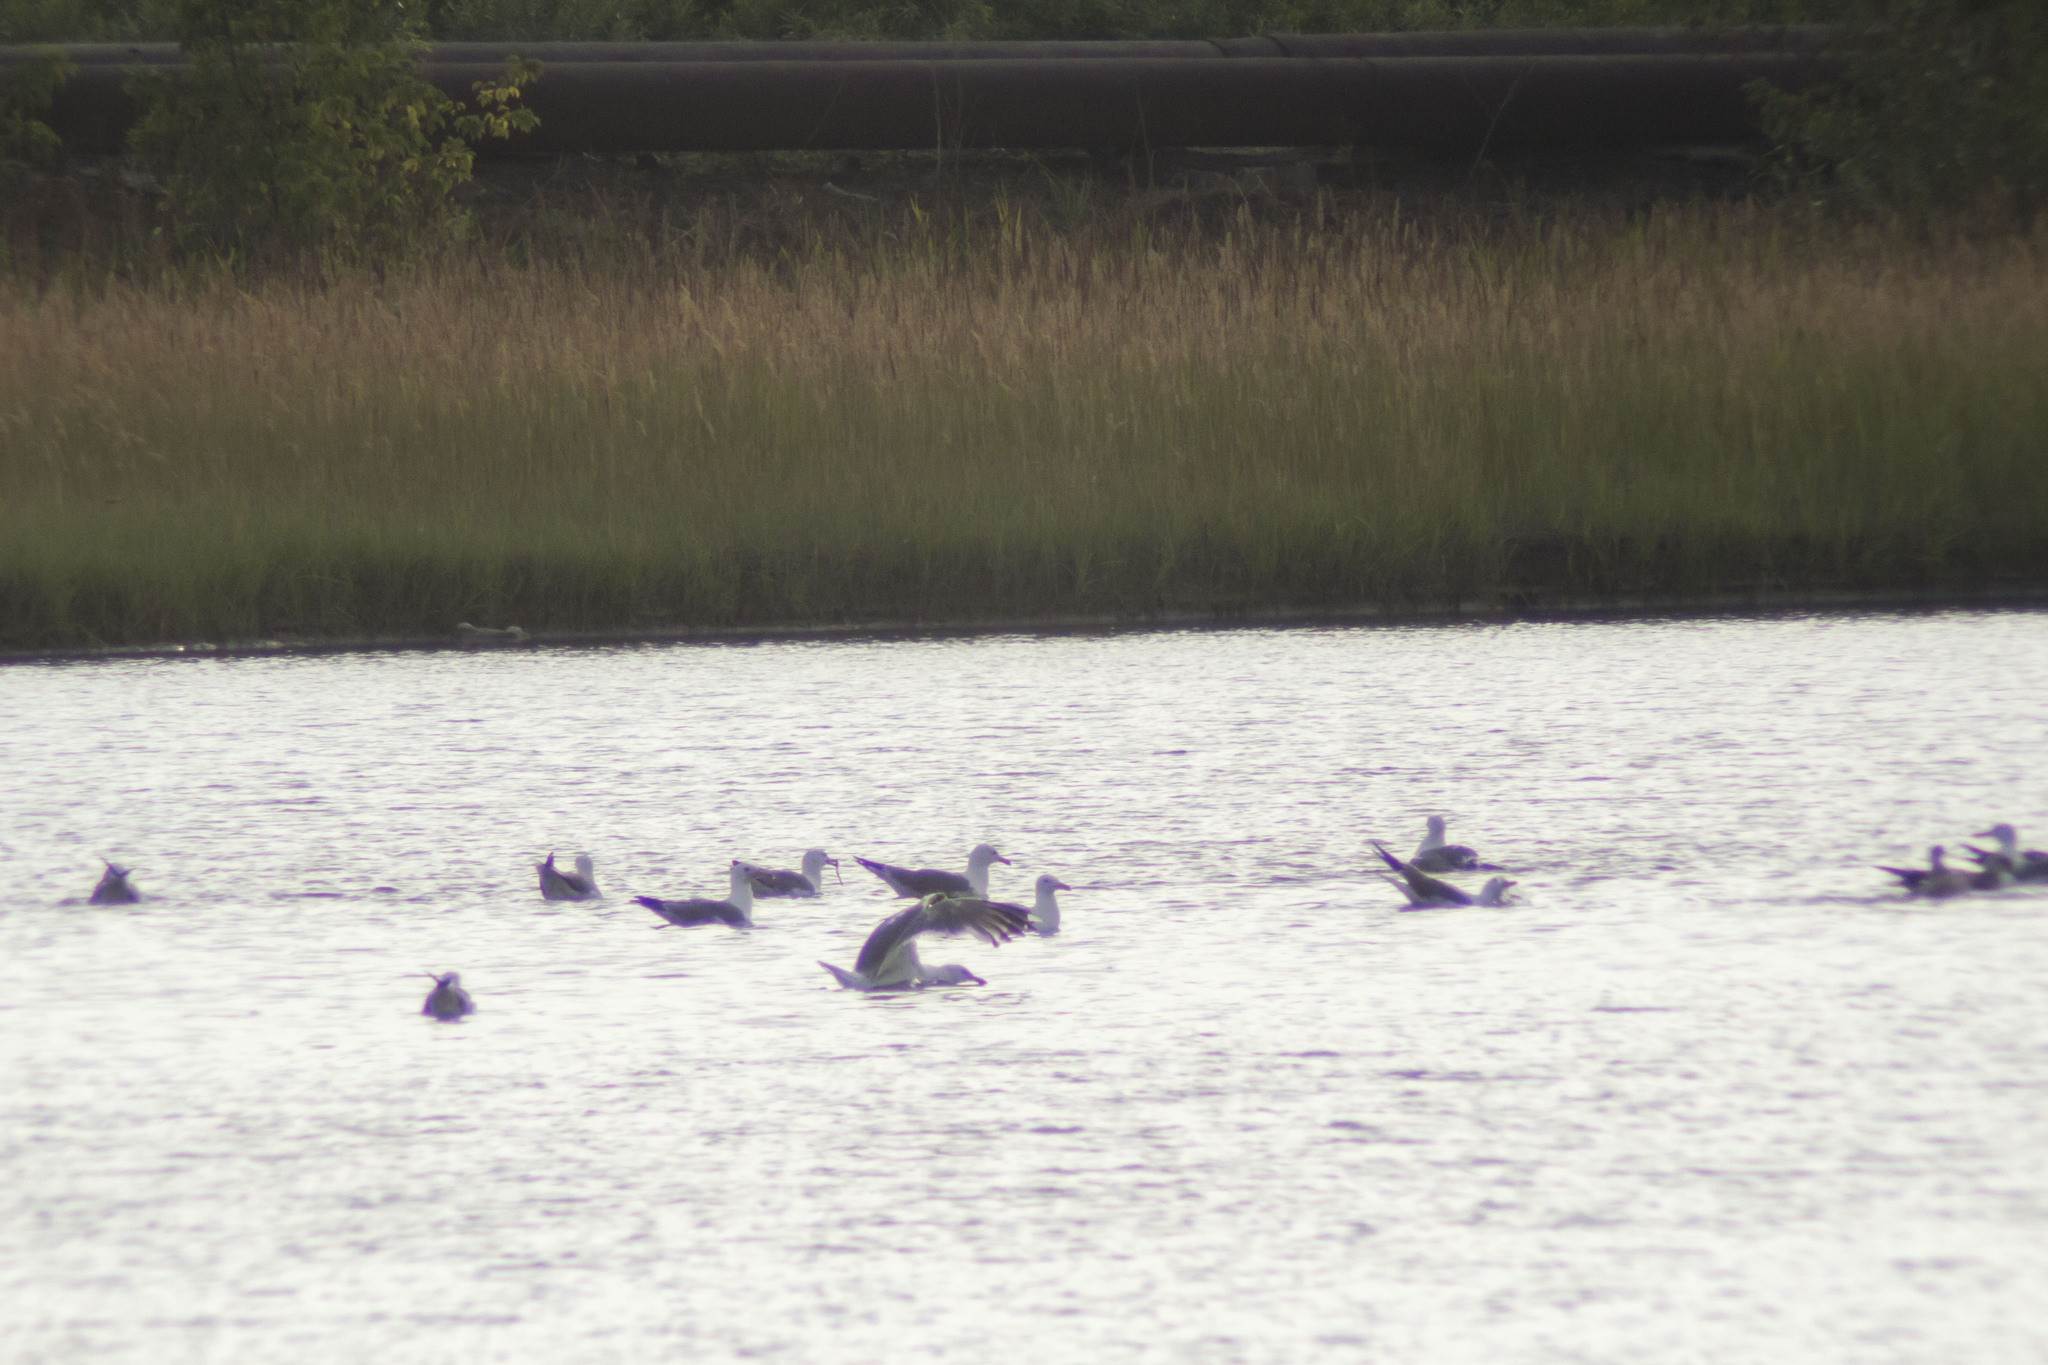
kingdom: Animalia
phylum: Chordata
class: Aves
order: Charadriiformes
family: Laridae
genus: Larus
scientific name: Larus fuscus
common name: Lesser black-backed gull
